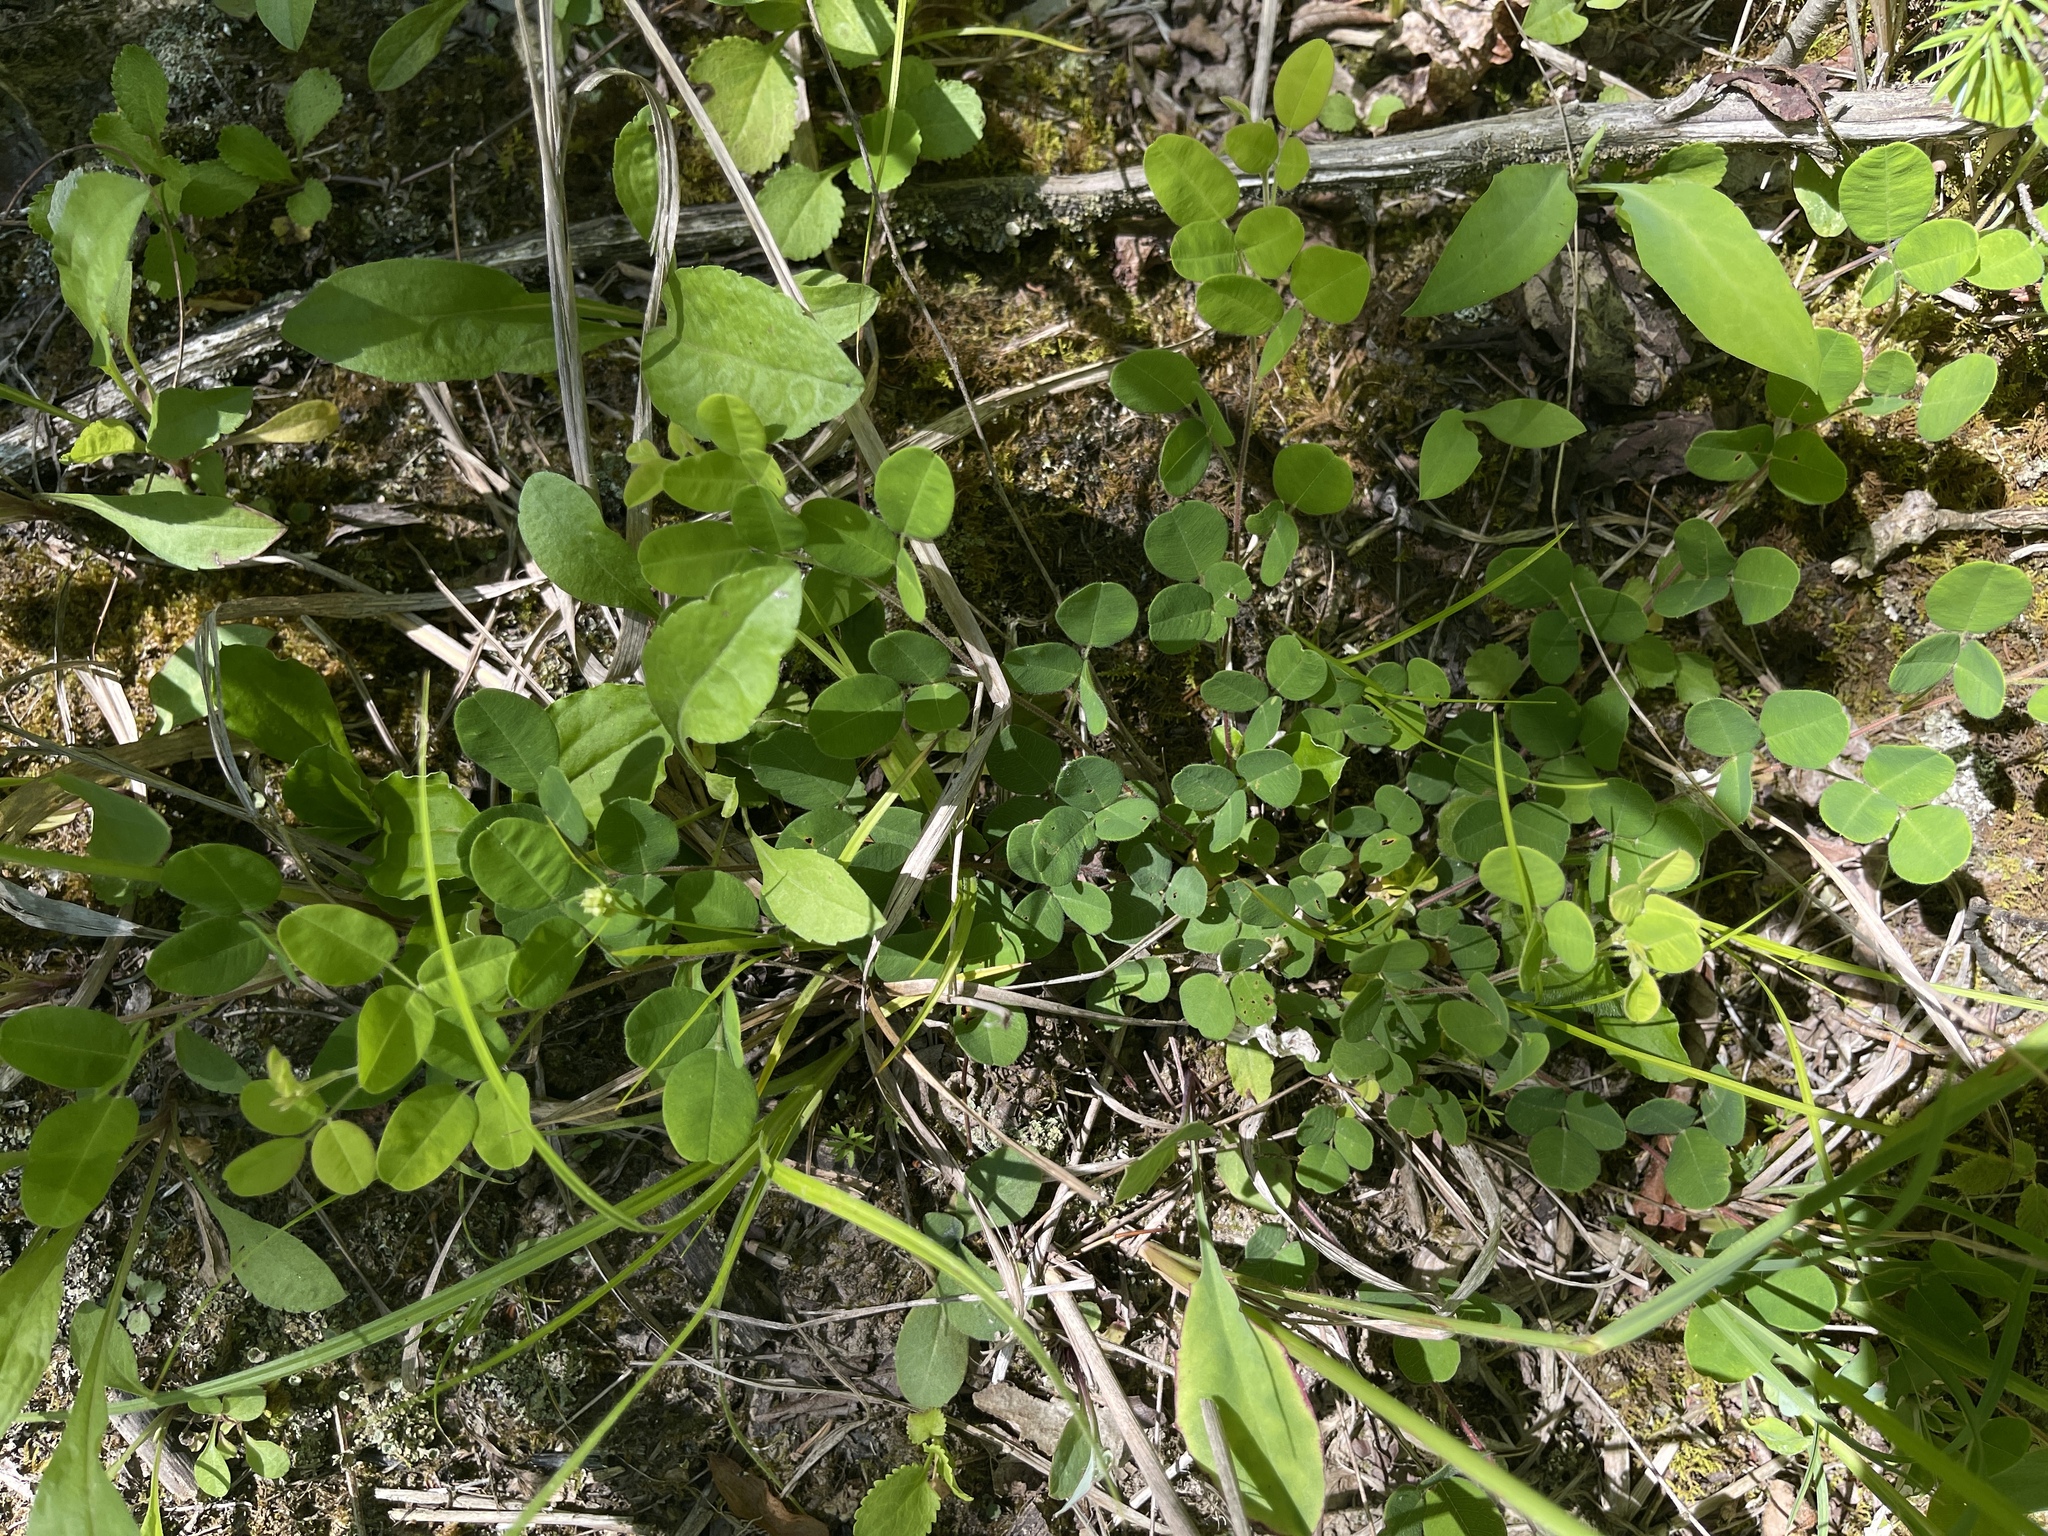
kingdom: Plantae
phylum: Tracheophyta
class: Magnoliopsida
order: Fabales
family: Fabaceae
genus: Lespedeza
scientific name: Lespedeza procumbens
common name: Downy trailing bush-clover
